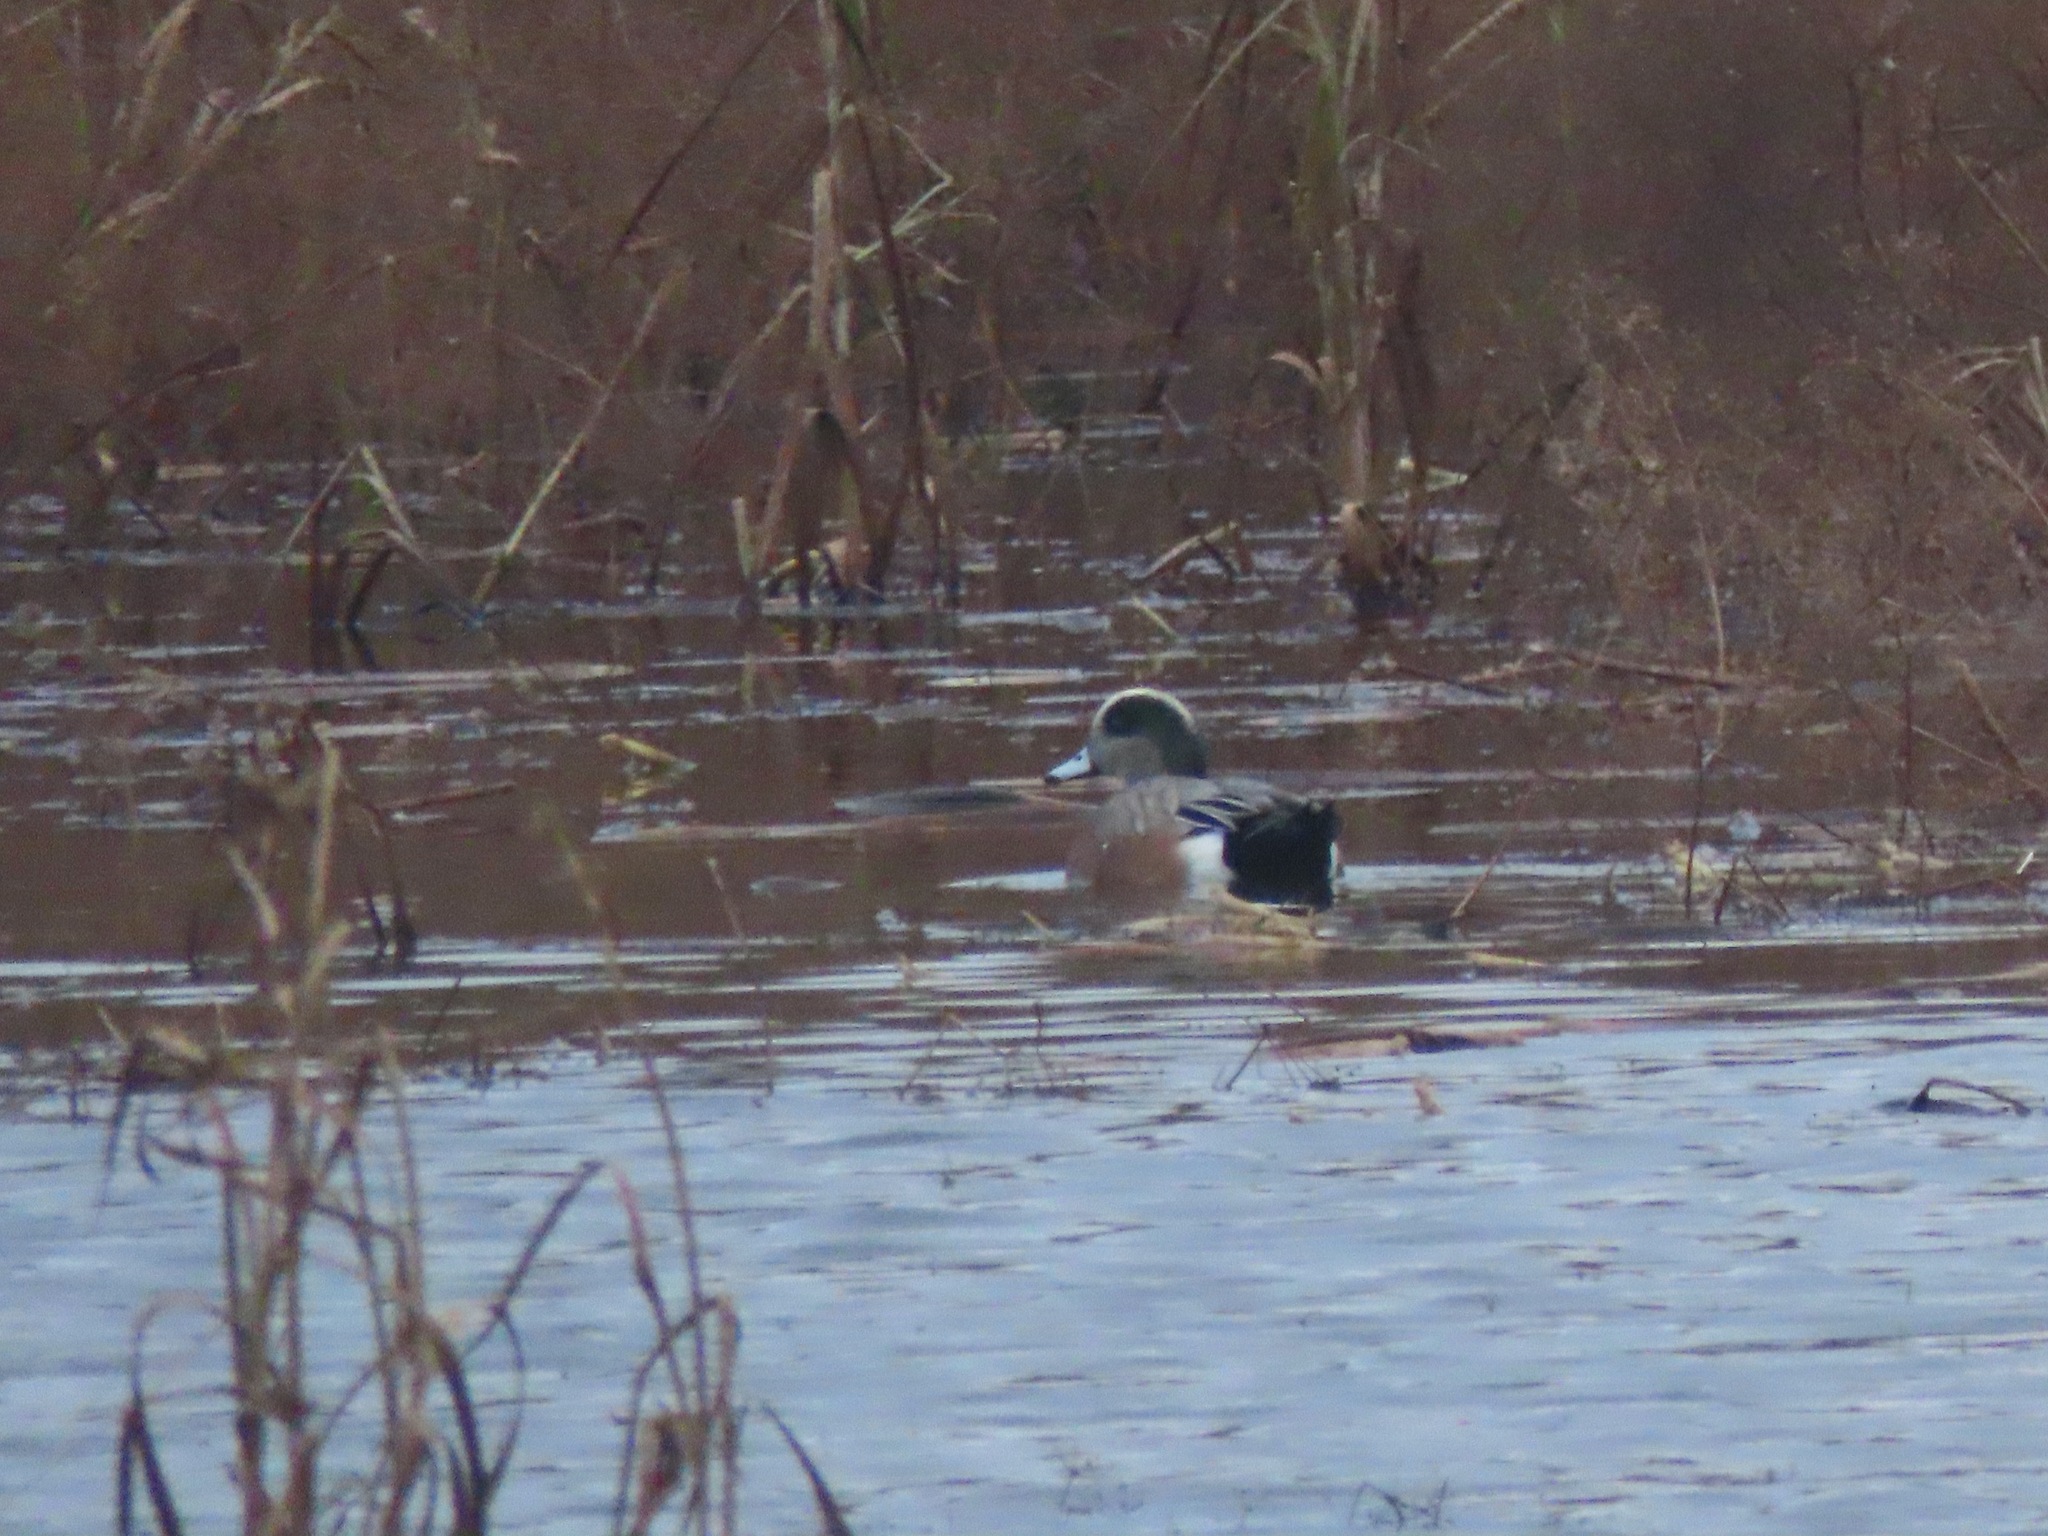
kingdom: Animalia
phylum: Chordata
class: Aves
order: Anseriformes
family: Anatidae
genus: Mareca
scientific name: Mareca americana
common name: American wigeon
